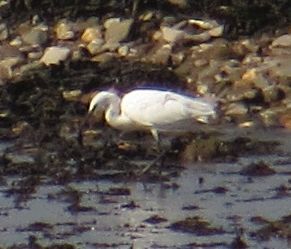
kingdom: Animalia
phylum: Chordata
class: Aves
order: Pelecaniformes
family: Ardeidae
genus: Egretta
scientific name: Egretta garzetta
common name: Little egret
